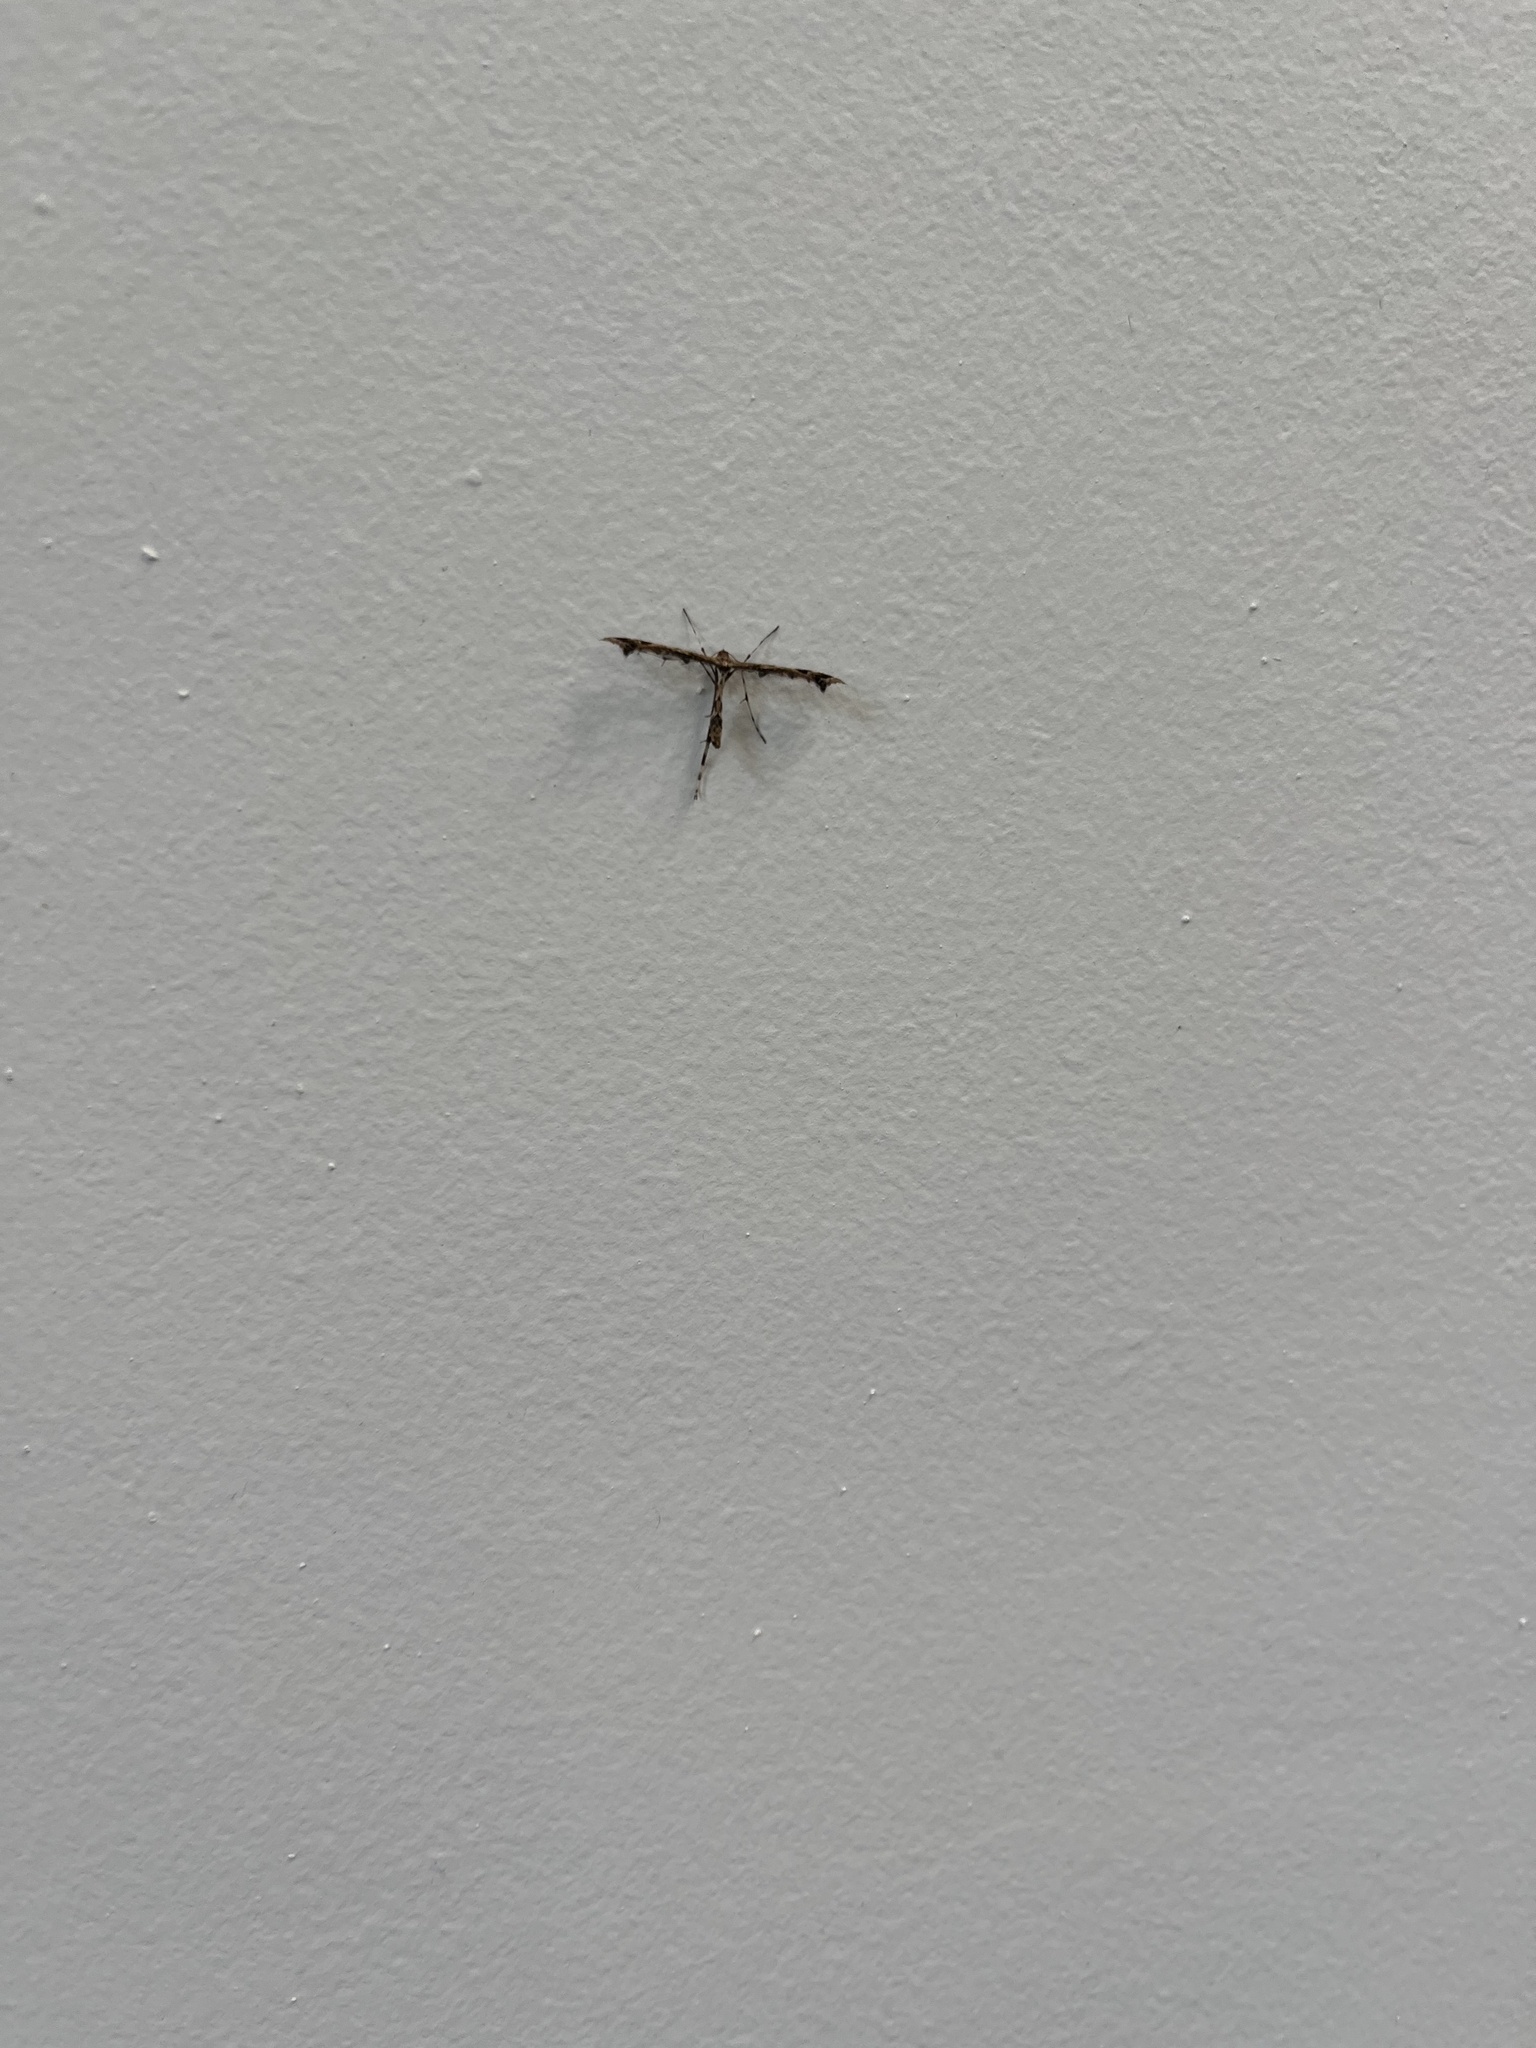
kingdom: Animalia
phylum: Arthropoda
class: Insecta
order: Lepidoptera
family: Pterophoridae
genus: Amblyptilia
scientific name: Amblyptilia acanthadactyla
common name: Beautiful plume
